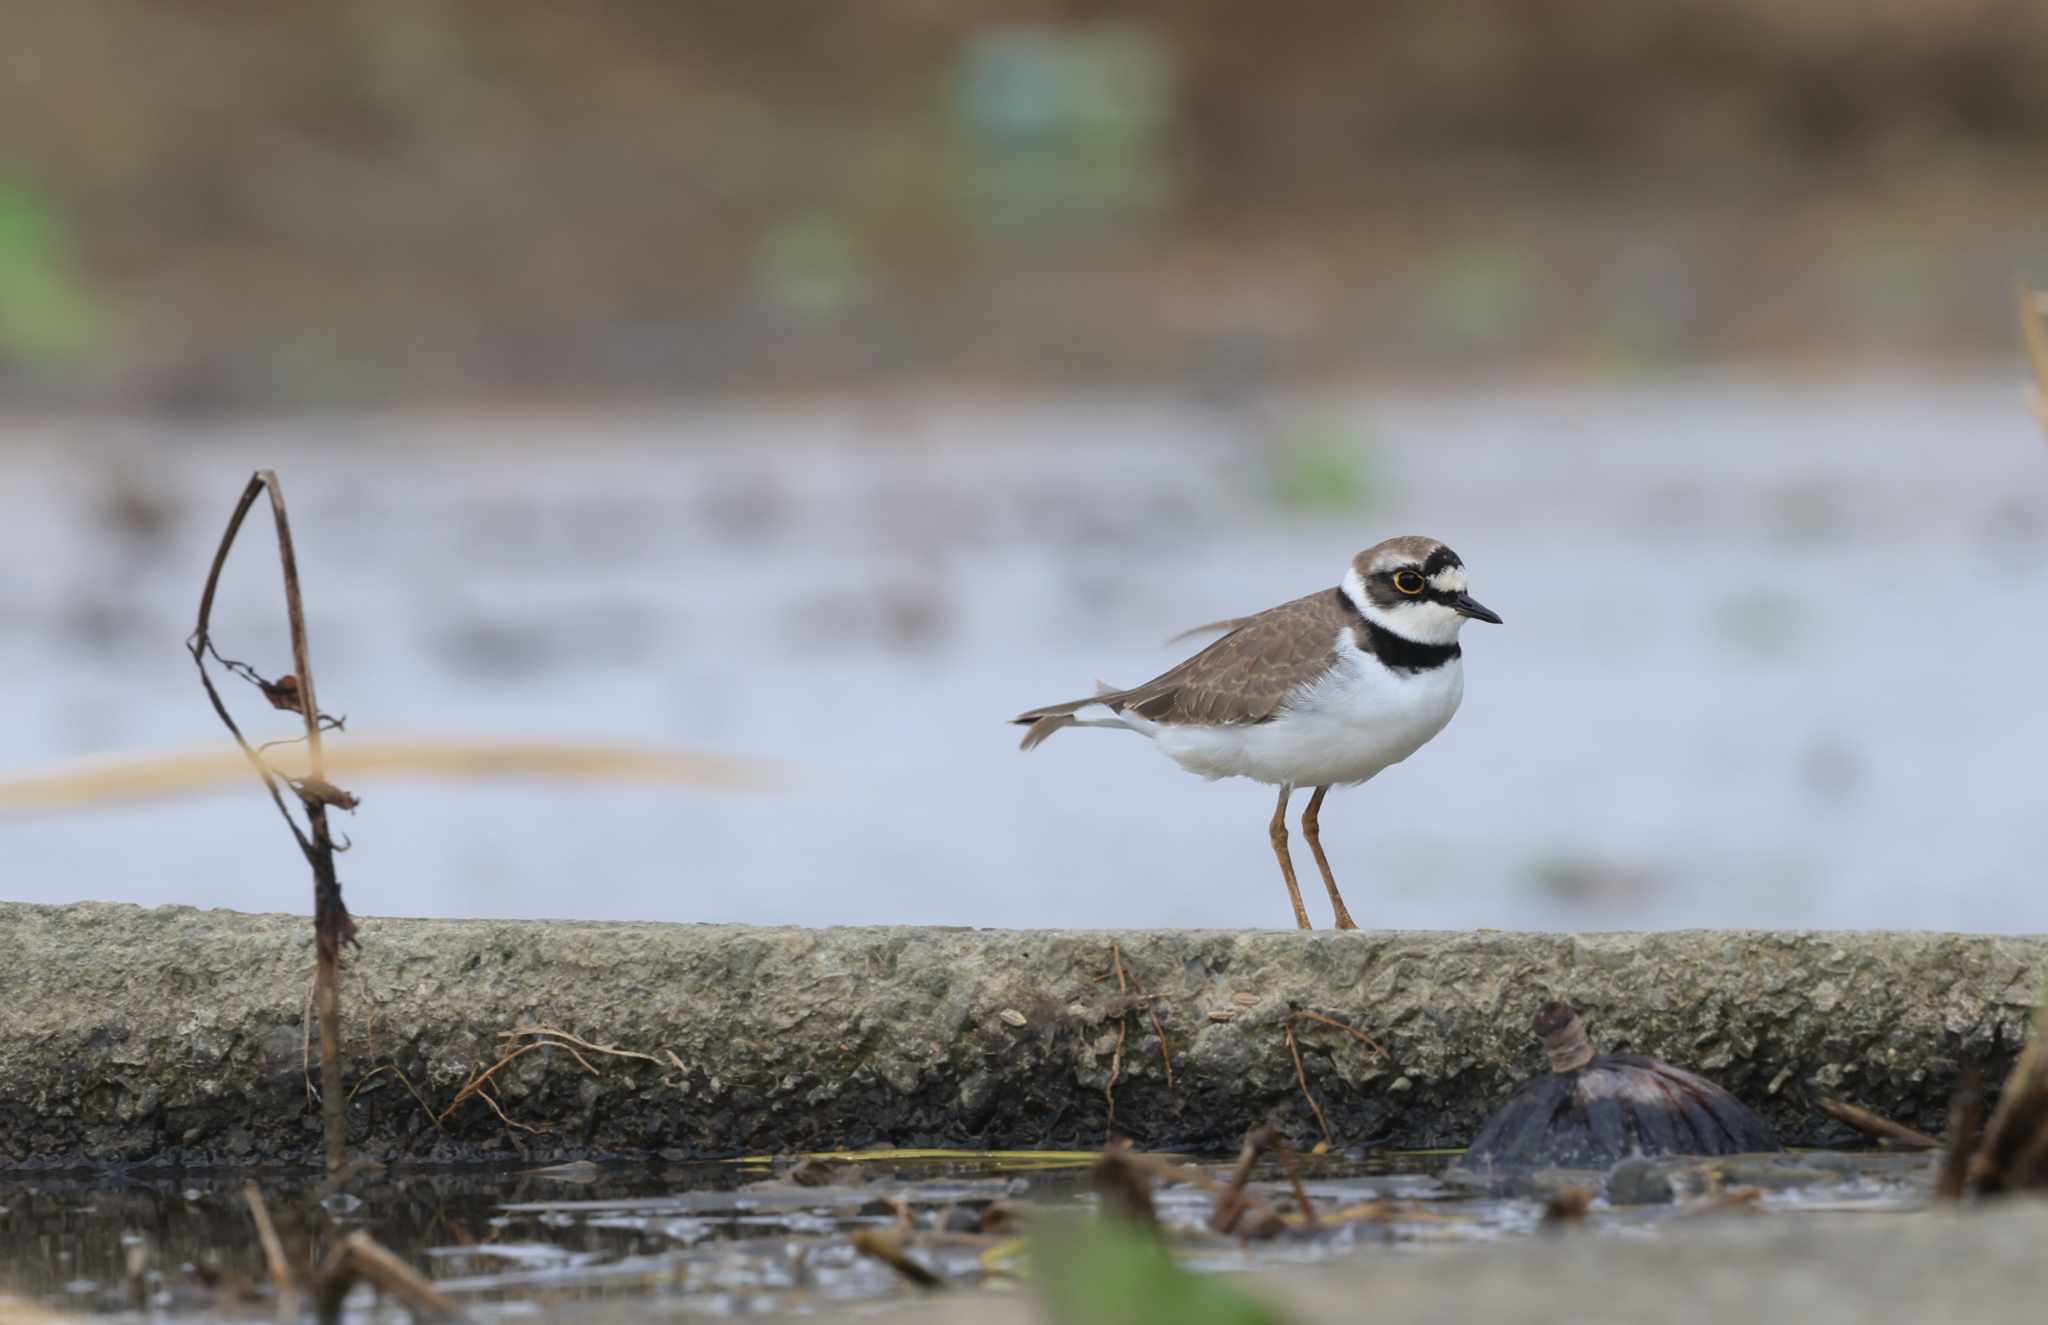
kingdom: Animalia
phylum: Chordata
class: Aves
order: Charadriiformes
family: Charadriidae
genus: Charadrius
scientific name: Charadrius dubius
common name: Little ringed plover
